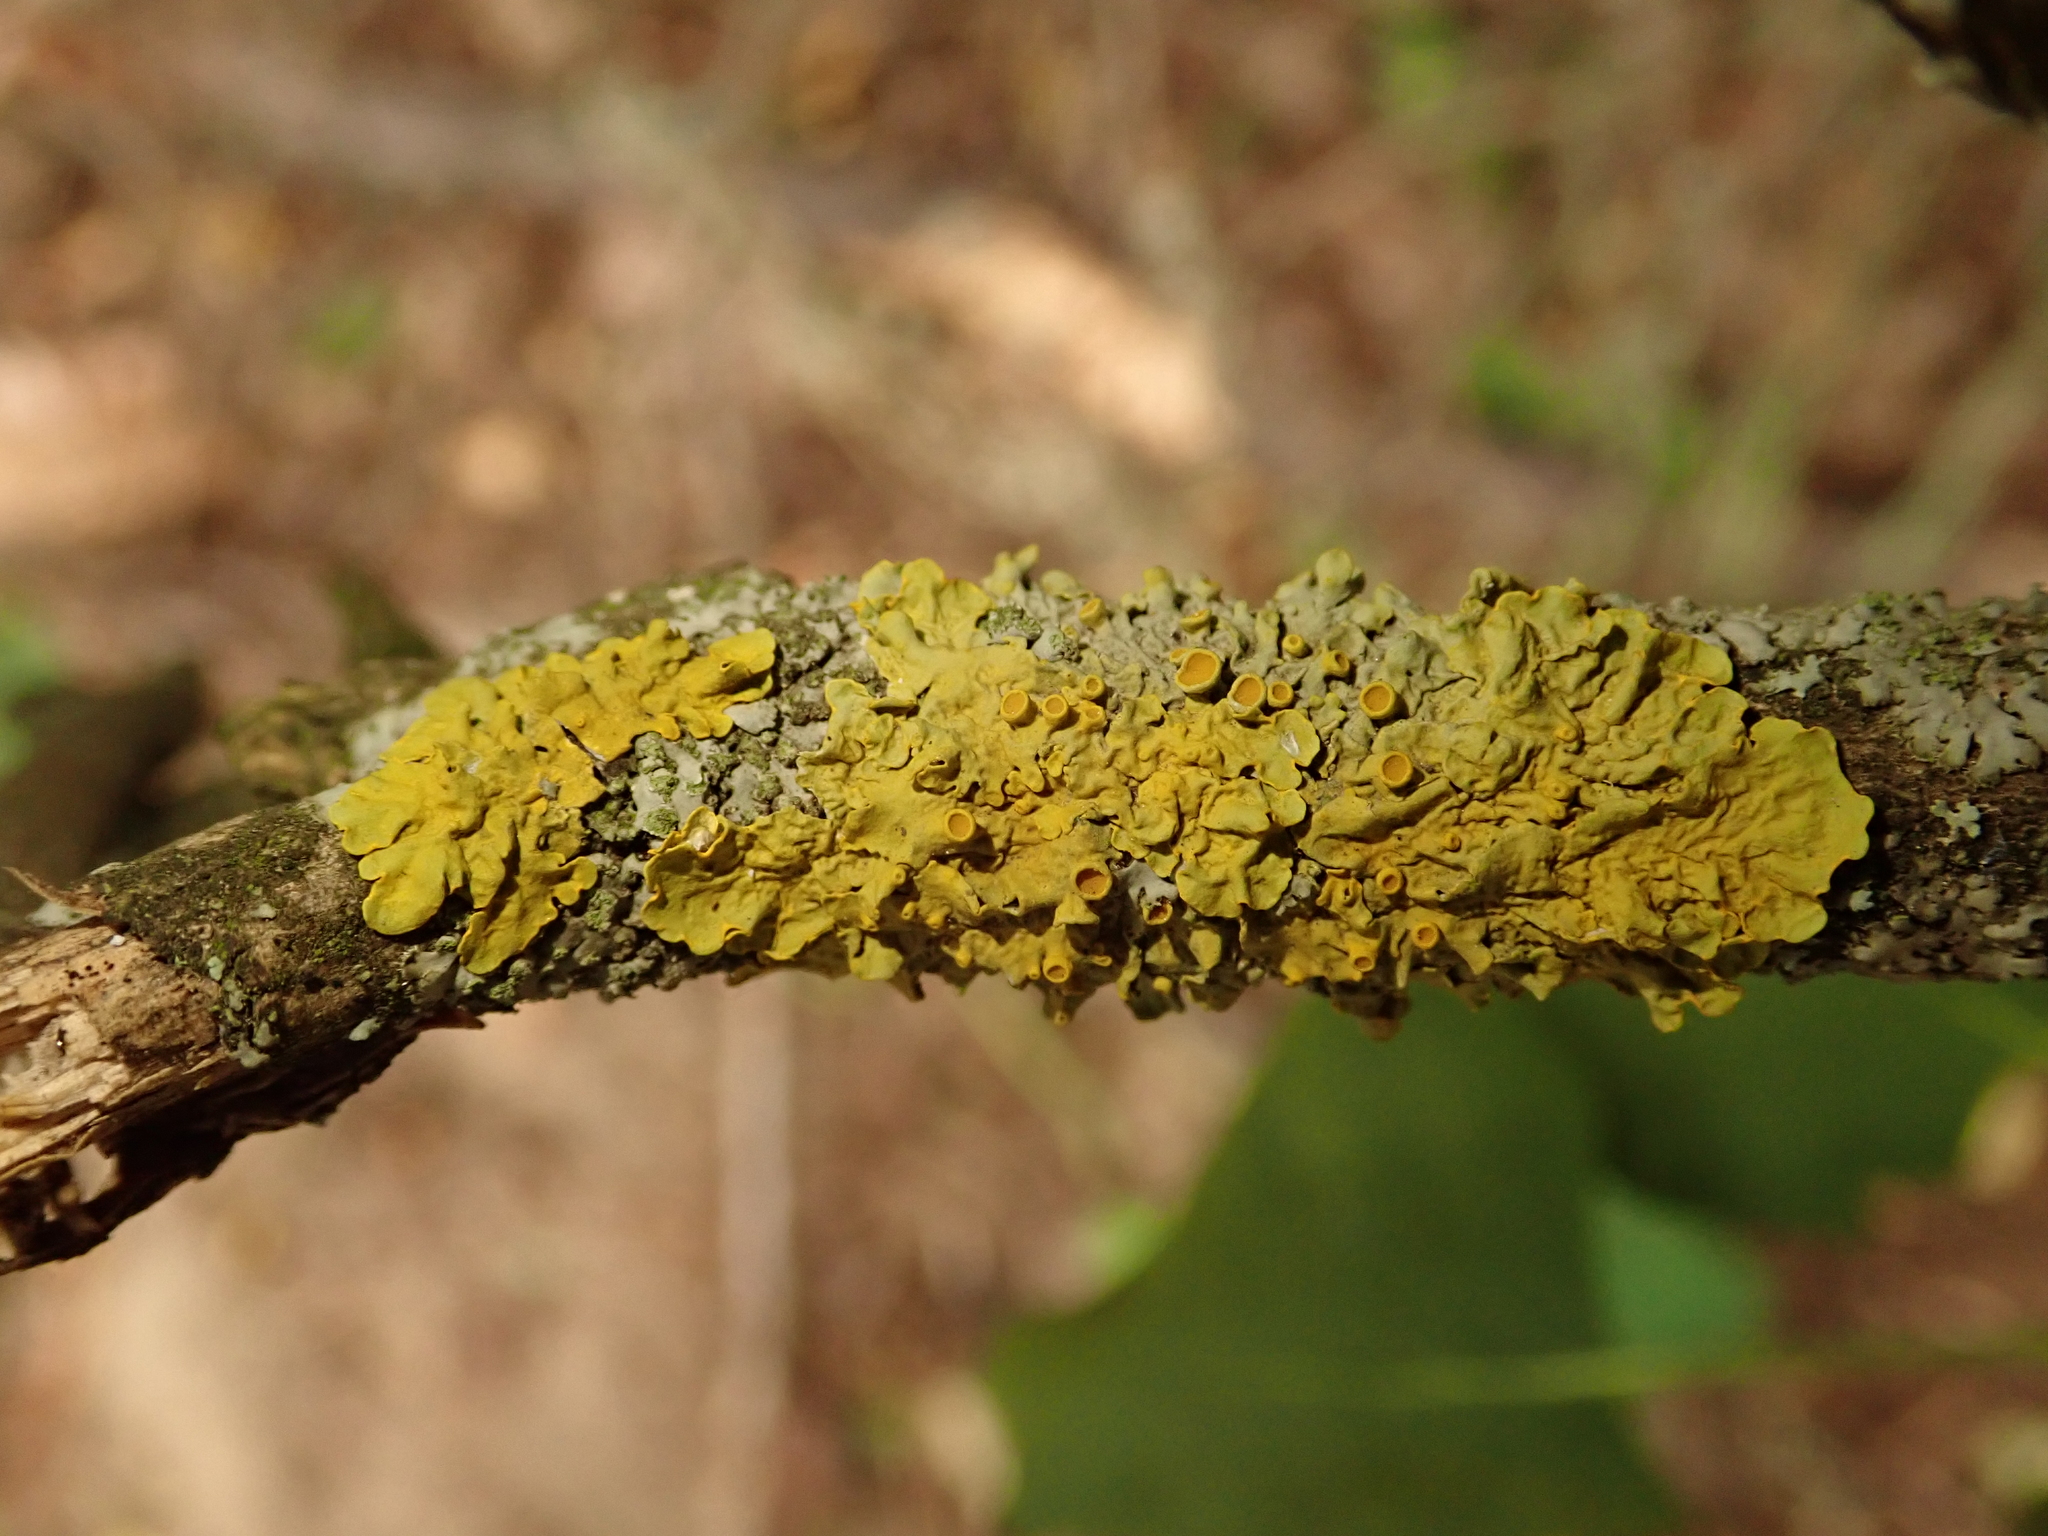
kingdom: Fungi
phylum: Ascomycota
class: Lecanoromycetes
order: Teloschistales
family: Teloschistaceae
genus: Xanthoria
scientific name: Xanthoria parietina
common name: Common orange lichen
